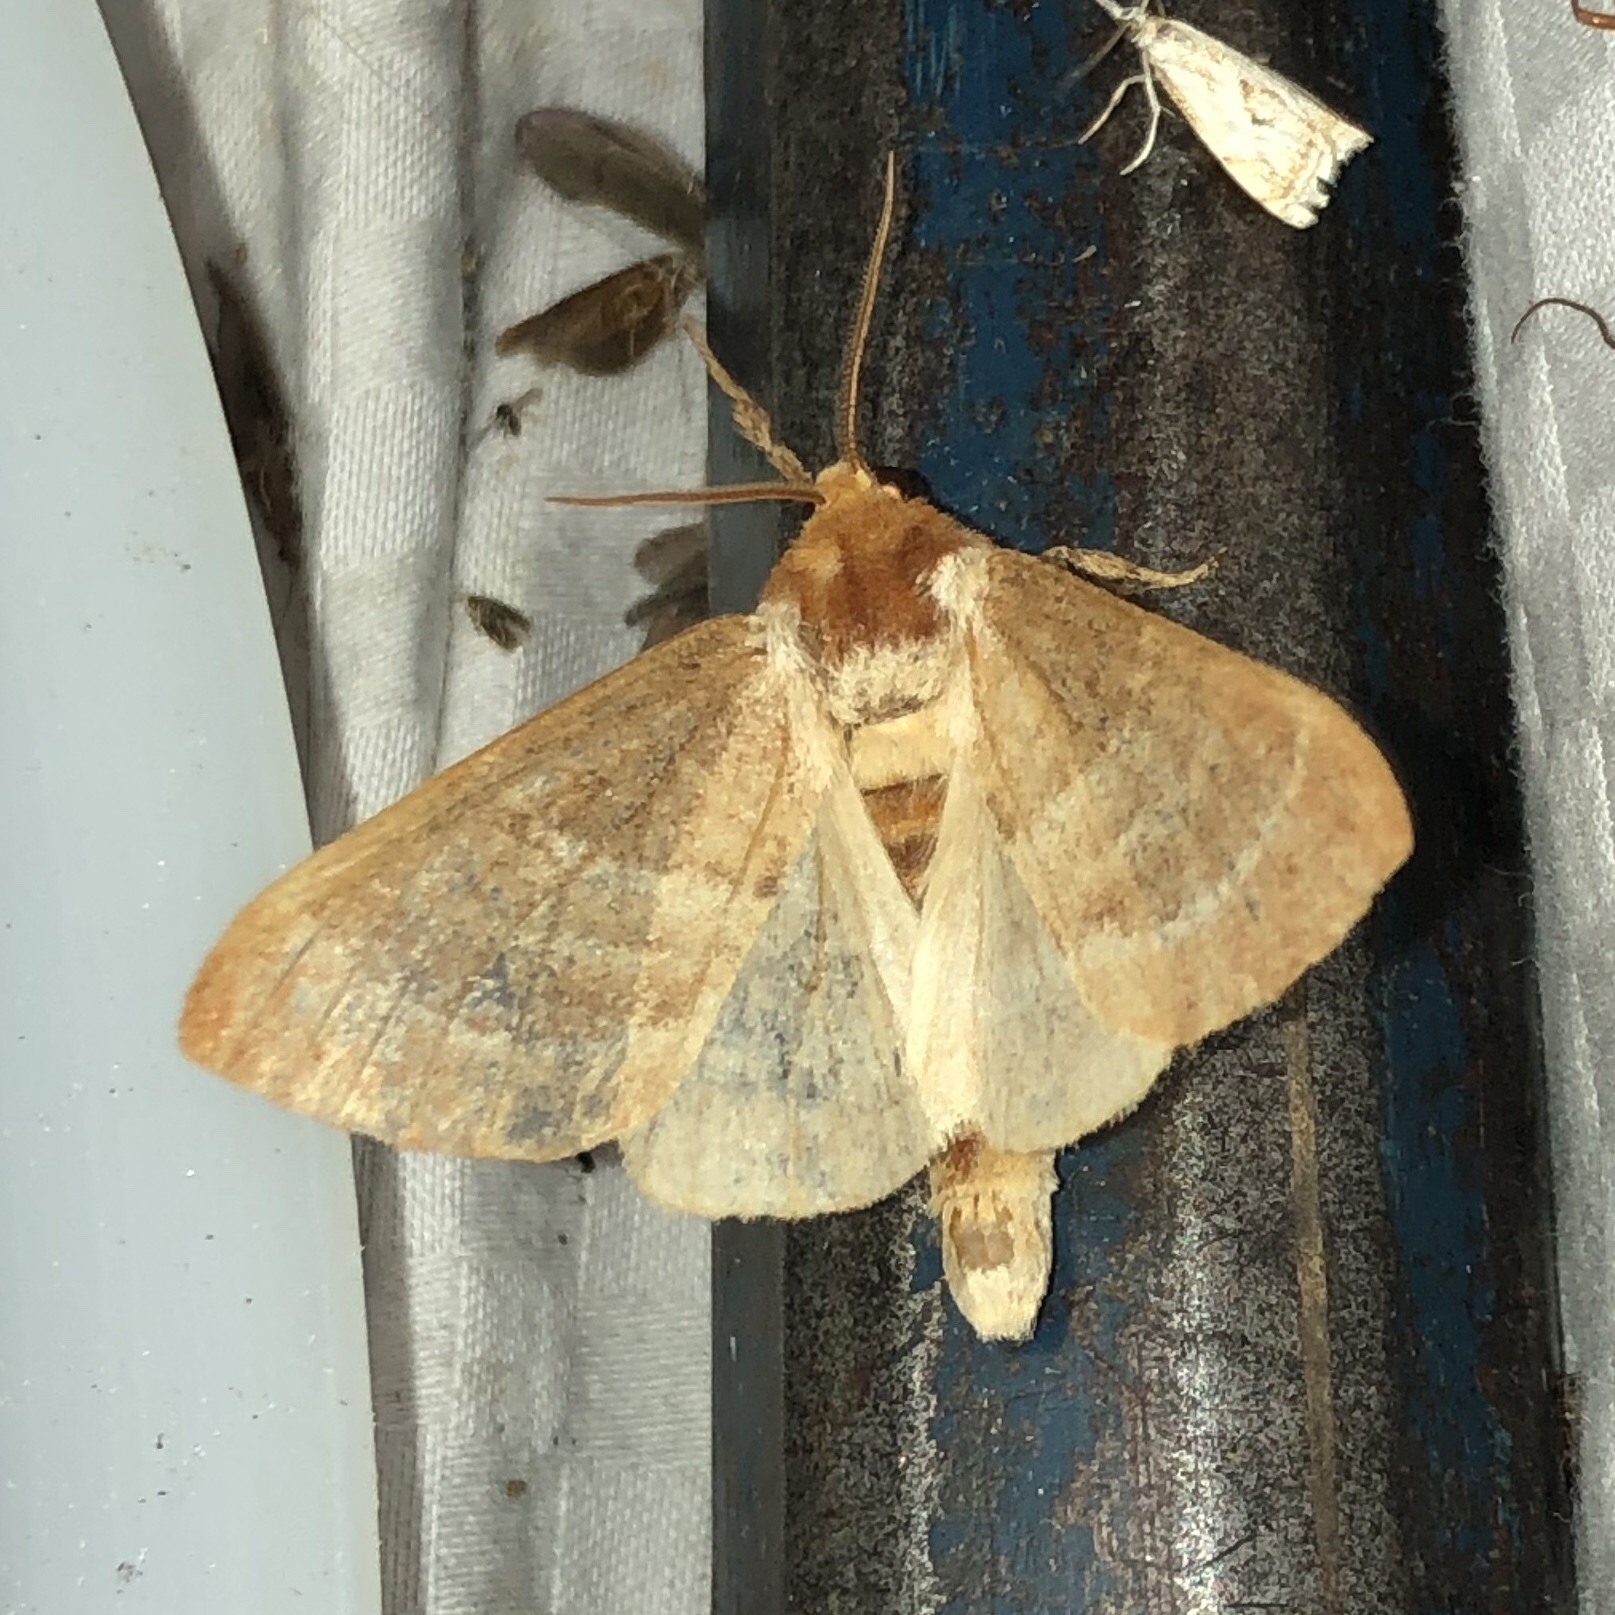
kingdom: Animalia
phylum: Arthropoda
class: Insecta
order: Lepidoptera
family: Notodontidae
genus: Datana
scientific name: Datana integerrima
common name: Walnut caterpillar
